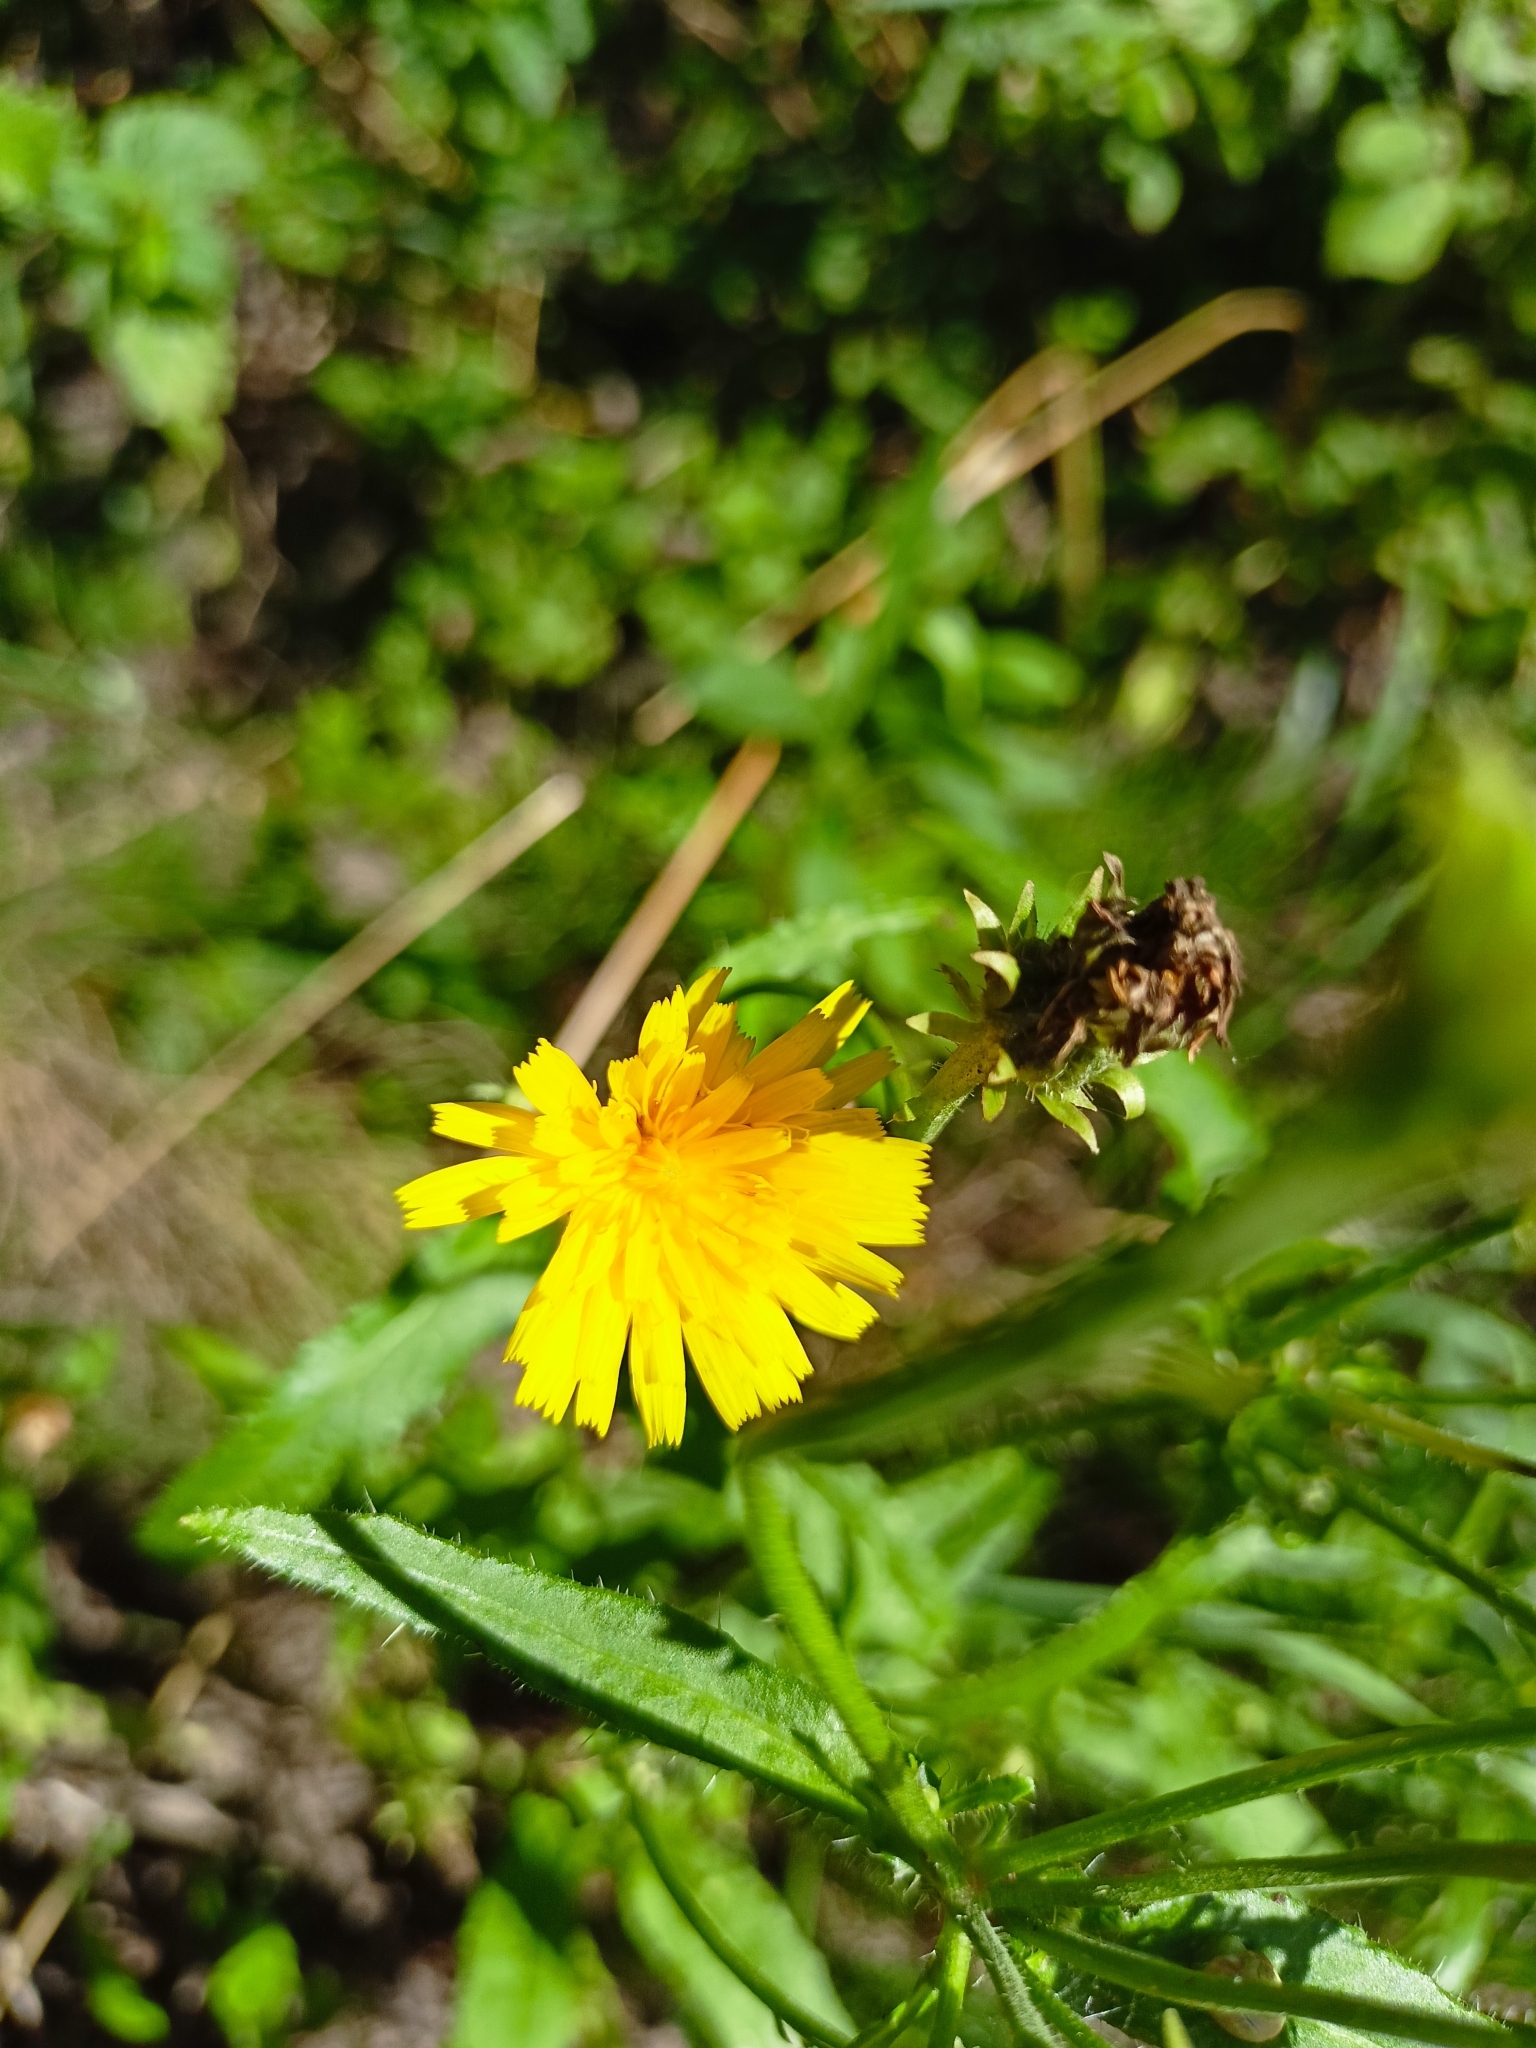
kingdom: Plantae
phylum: Tracheophyta
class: Magnoliopsida
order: Asterales
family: Asteraceae
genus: Picris
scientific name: Picris hieracioides
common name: Hawkweed oxtongue
